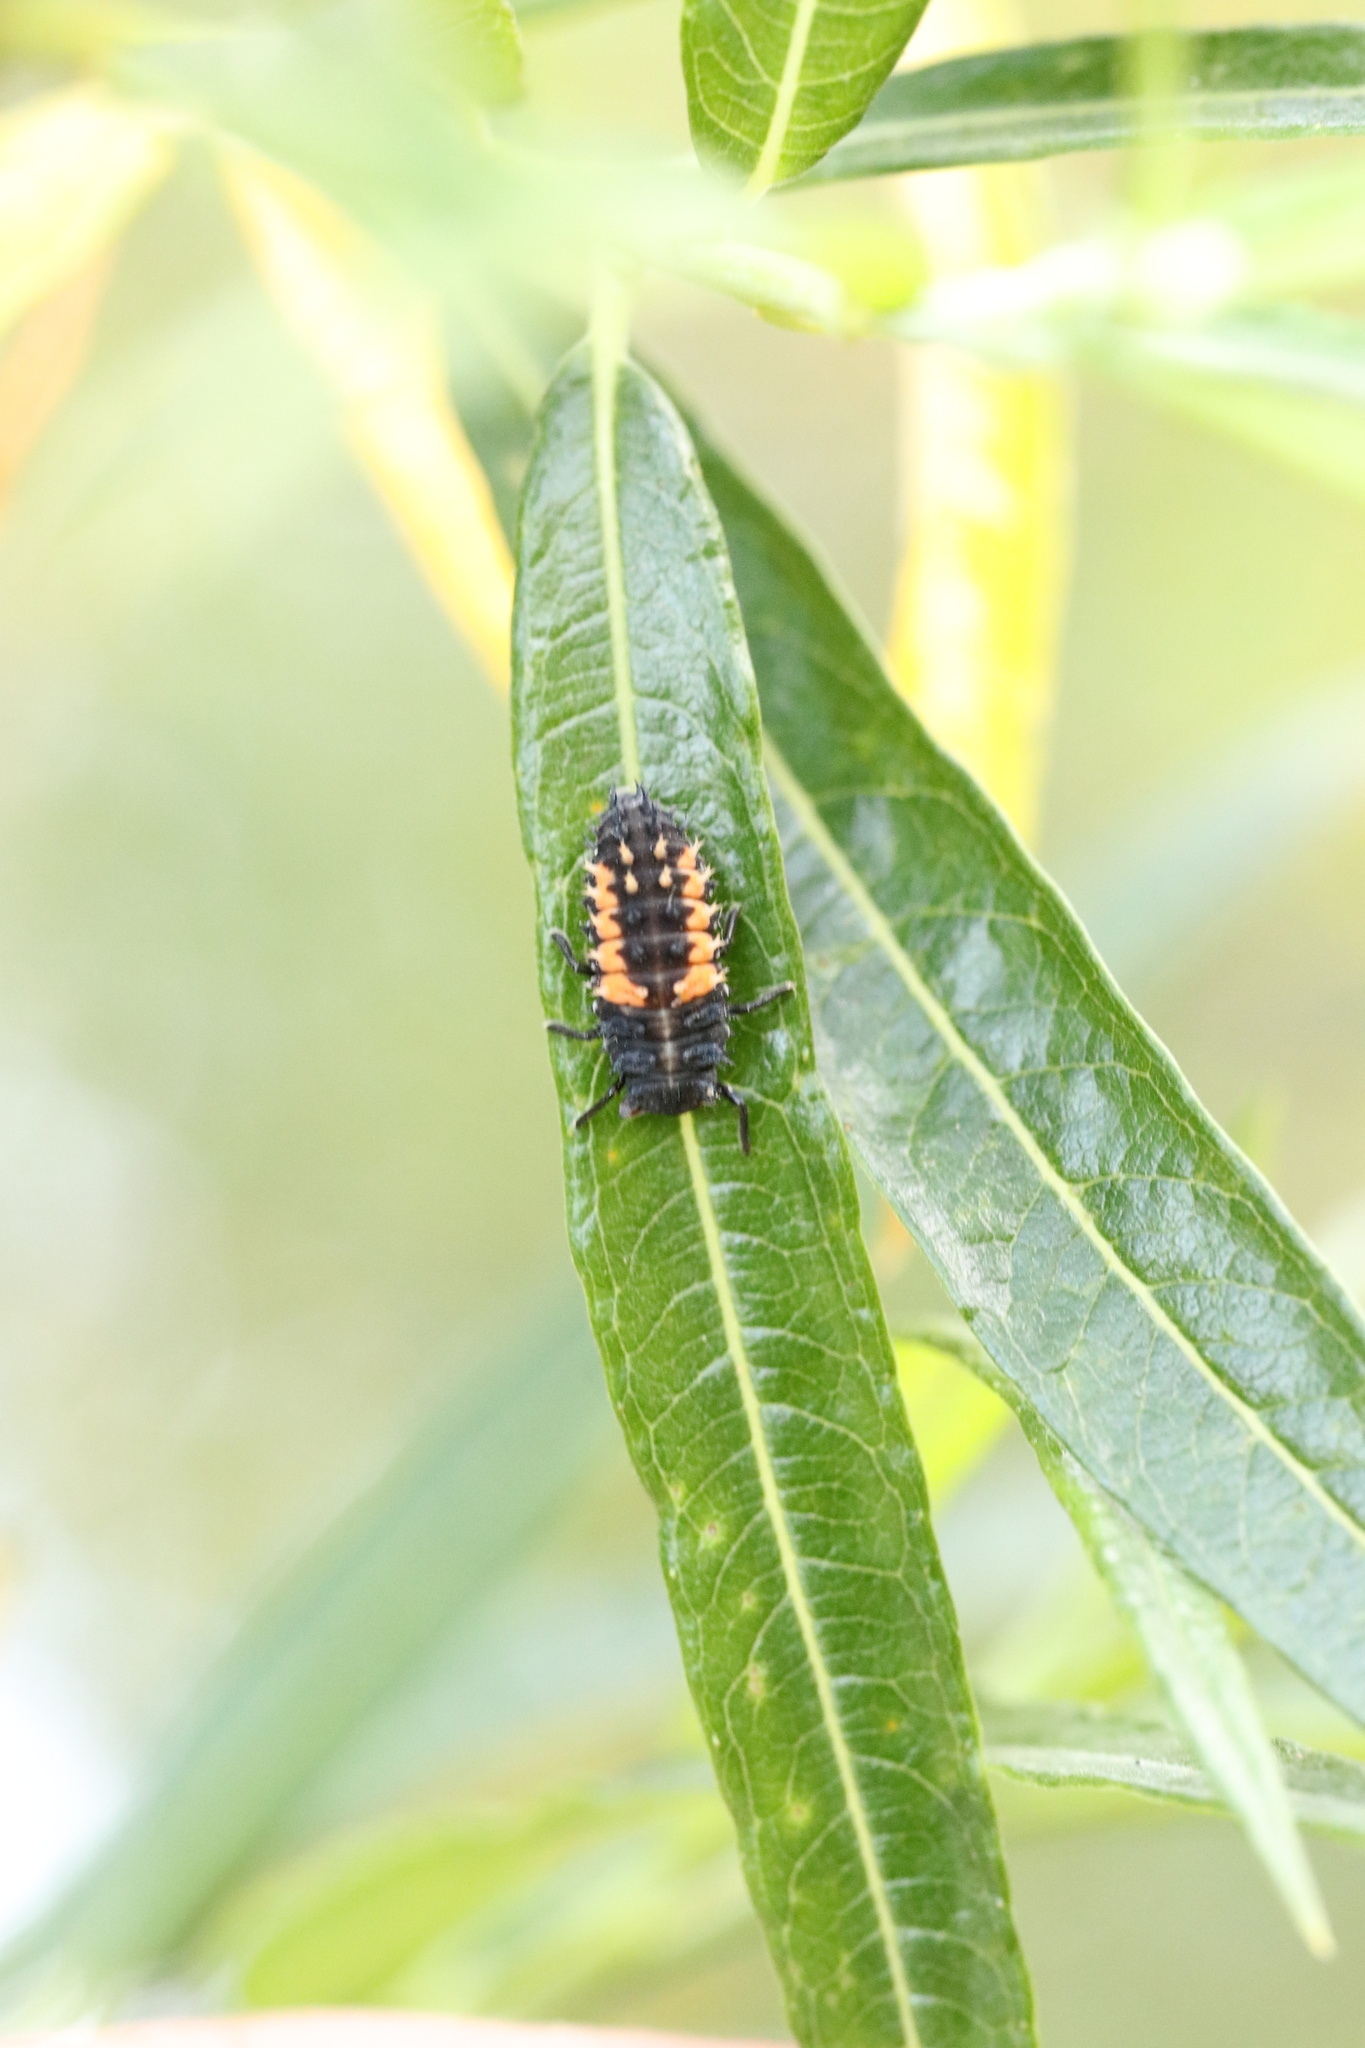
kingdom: Animalia
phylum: Arthropoda
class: Insecta
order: Coleoptera
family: Coccinellidae
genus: Harmonia
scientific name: Harmonia axyridis
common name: Harlequin ladybird
